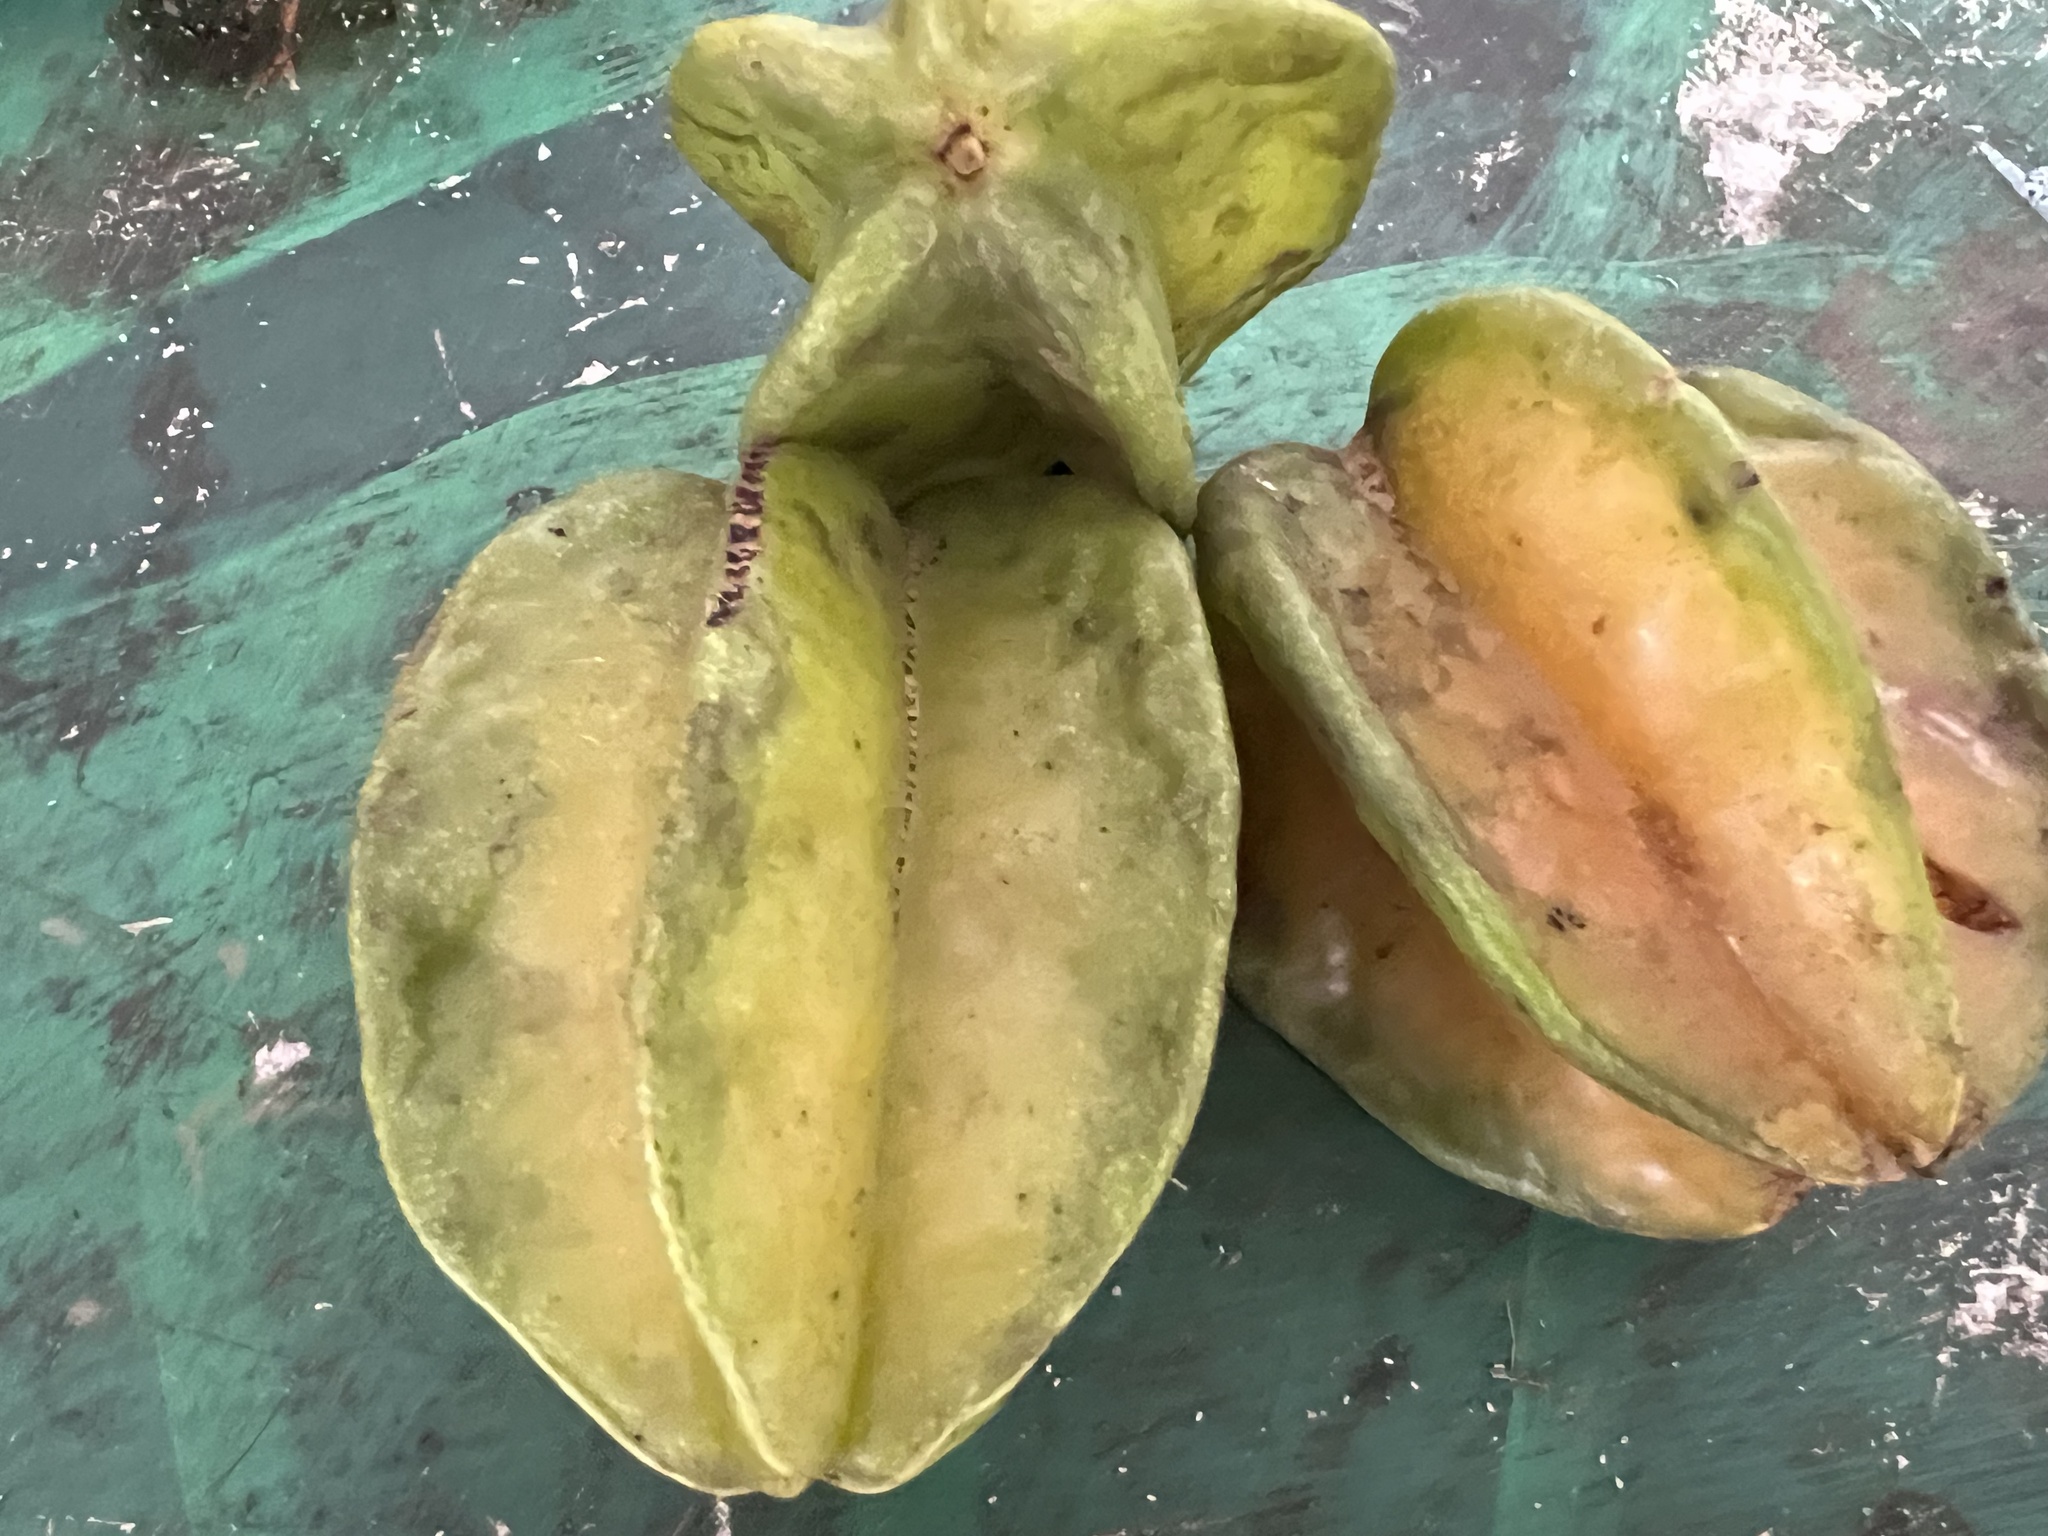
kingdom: Plantae
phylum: Tracheophyta
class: Magnoliopsida
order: Oxalidales
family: Oxalidaceae
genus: Averrhoa
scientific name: Averrhoa carambola
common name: Blimbing
